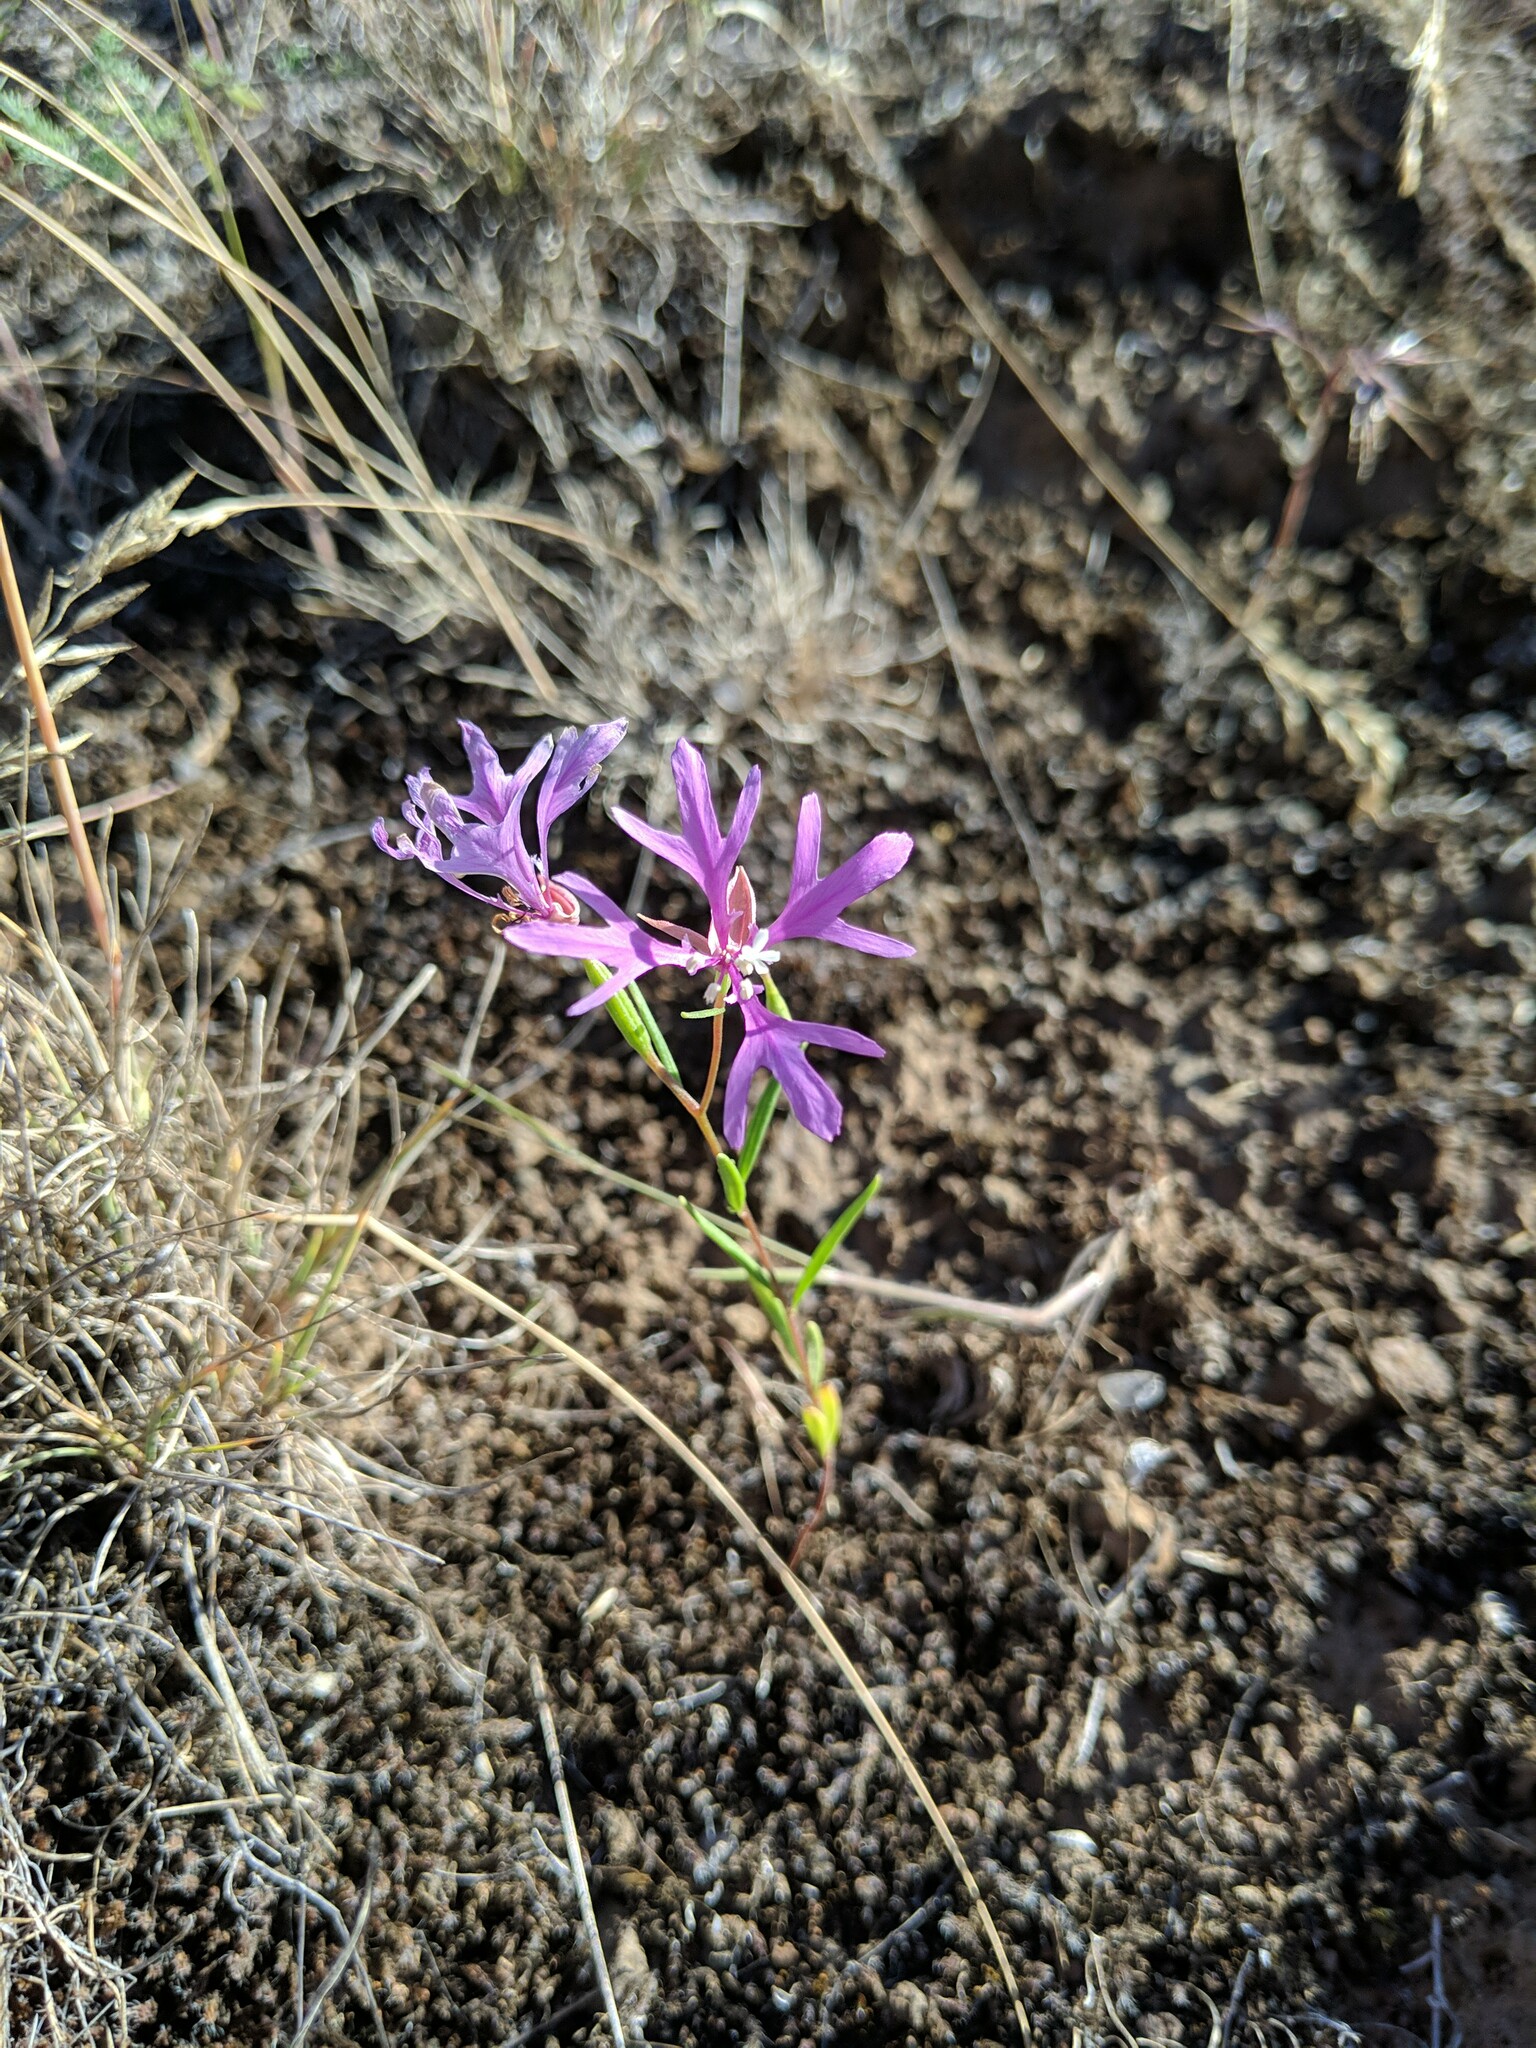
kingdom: Plantae
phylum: Tracheophyta
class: Magnoliopsida
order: Myrtales
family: Onagraceae
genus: Clarkia
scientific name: Clarkia pulchella
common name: Deer horn
